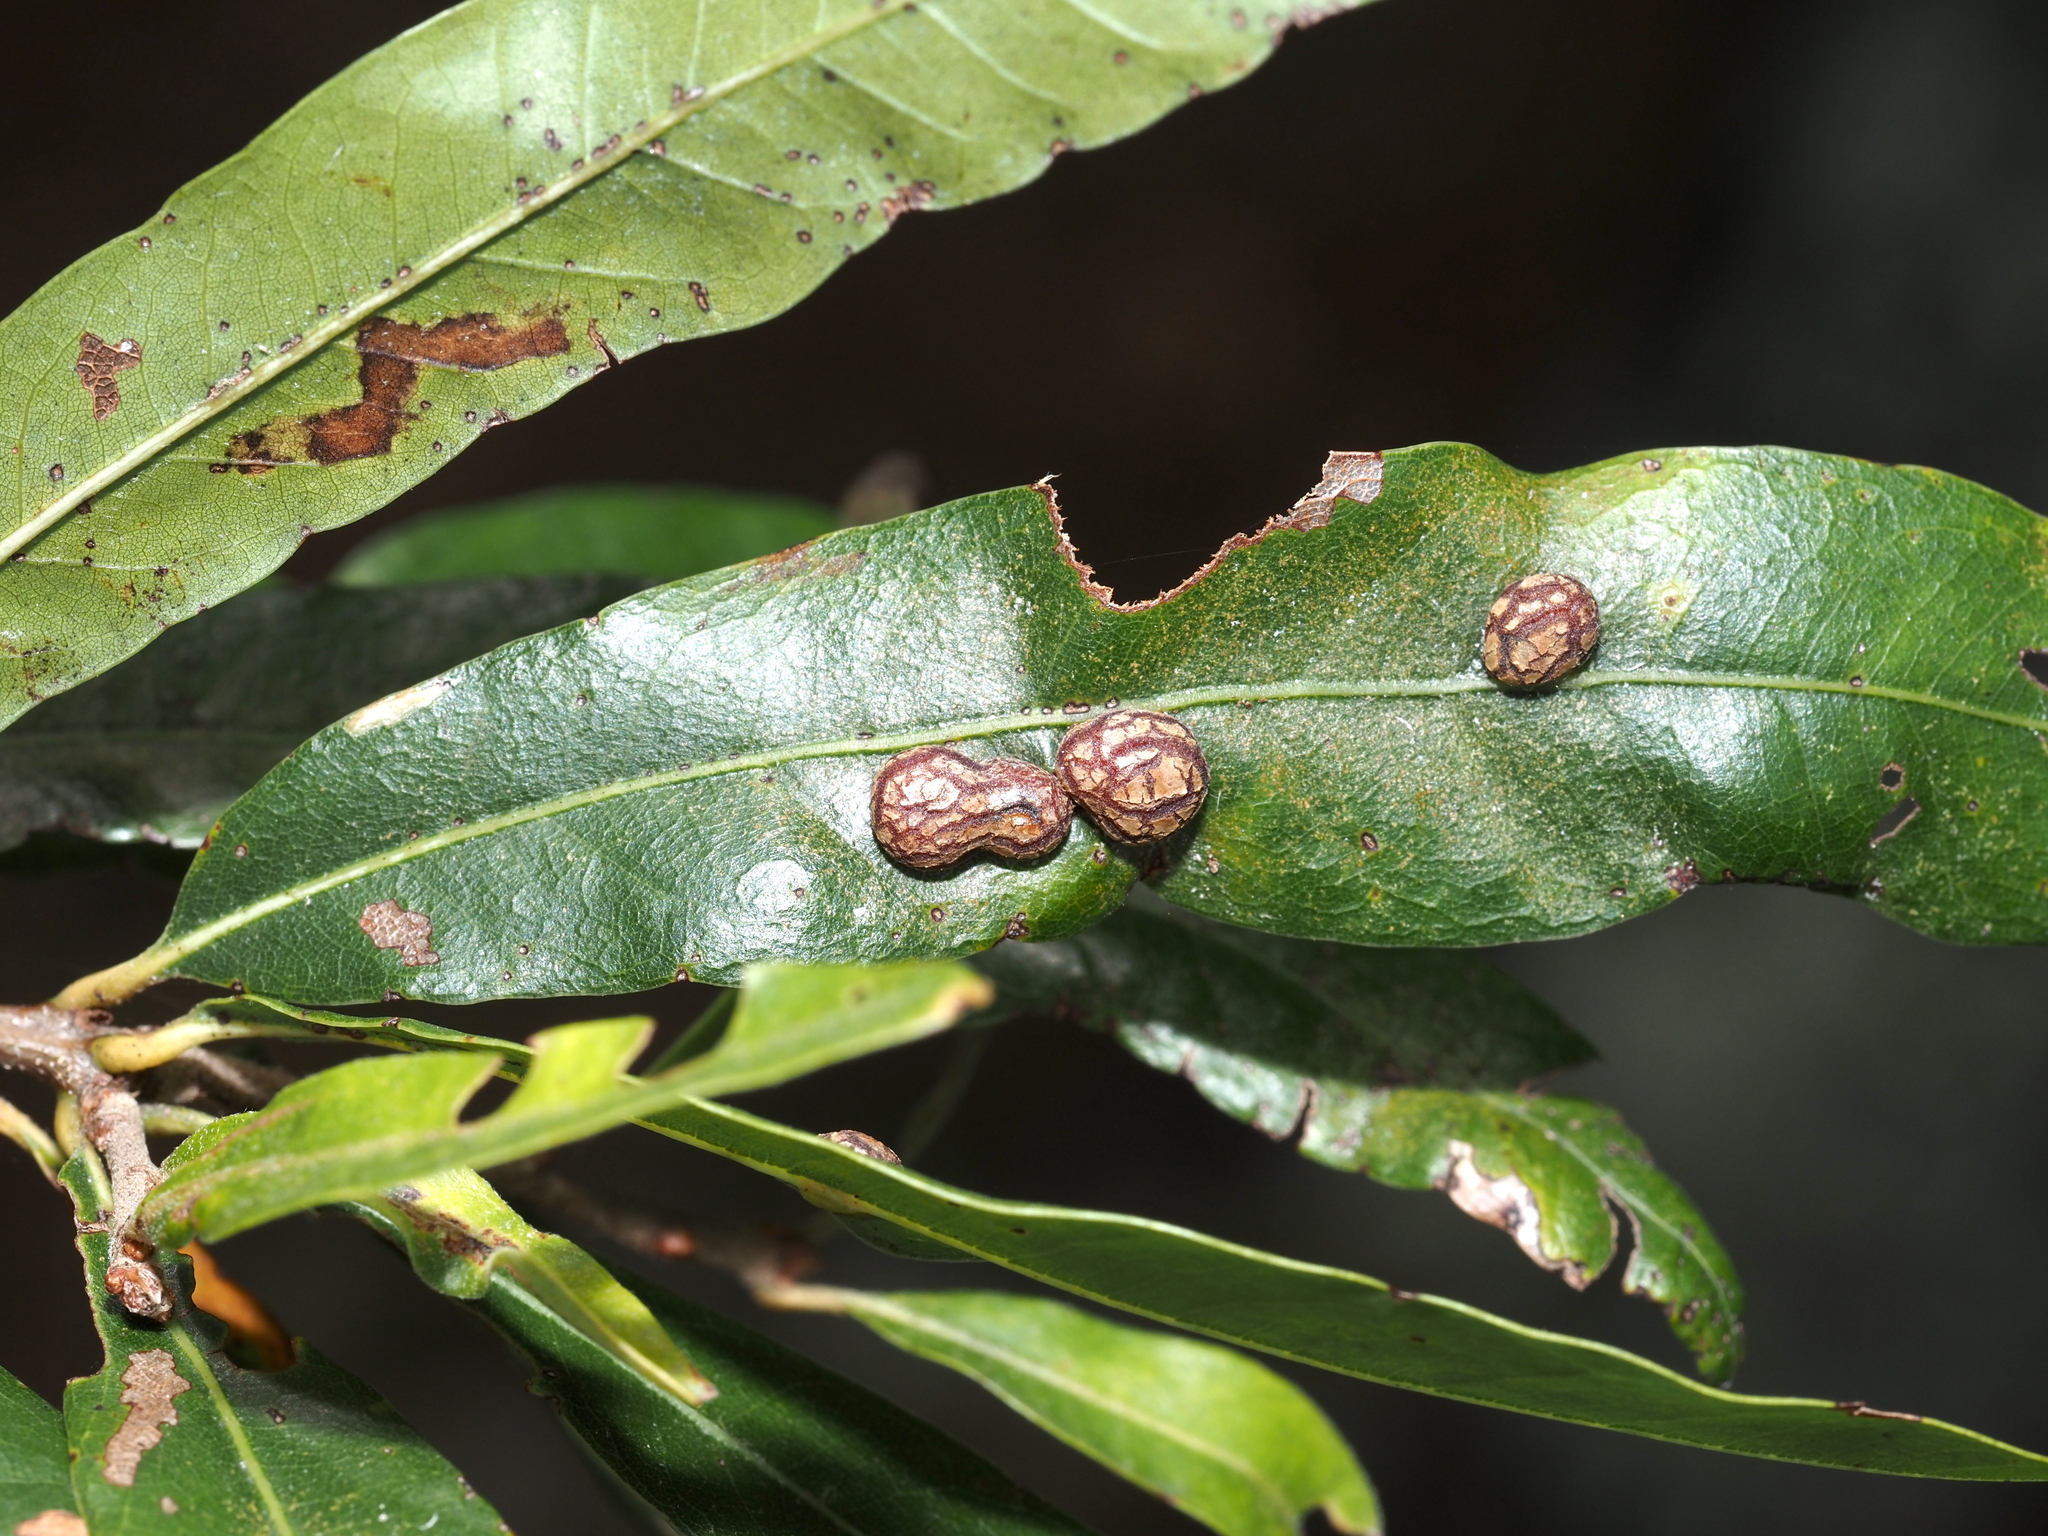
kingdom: Animalia
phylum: Arthropoda
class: Insecta
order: Diptera
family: Cecidomyiidae
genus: Polystepha
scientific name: Polystepha pilulae
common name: Oak leaf gall midge
